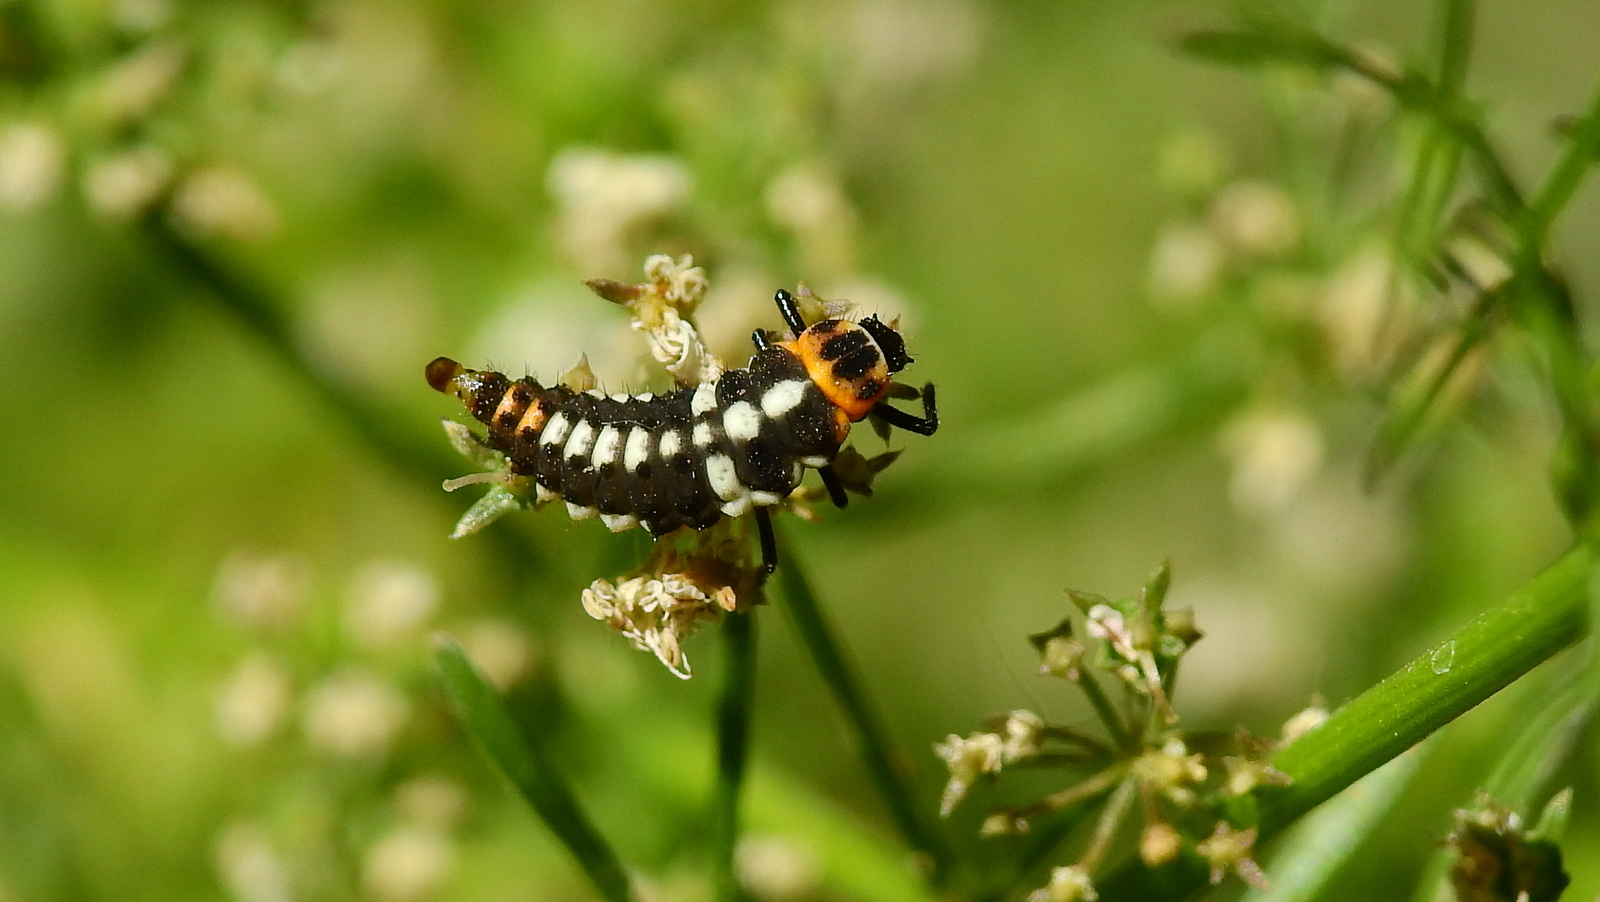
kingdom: Animalia
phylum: Arthropoda
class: Insecta
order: Coleoptera
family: Coccinellidae
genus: Eriopis
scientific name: Eriopis connexa
